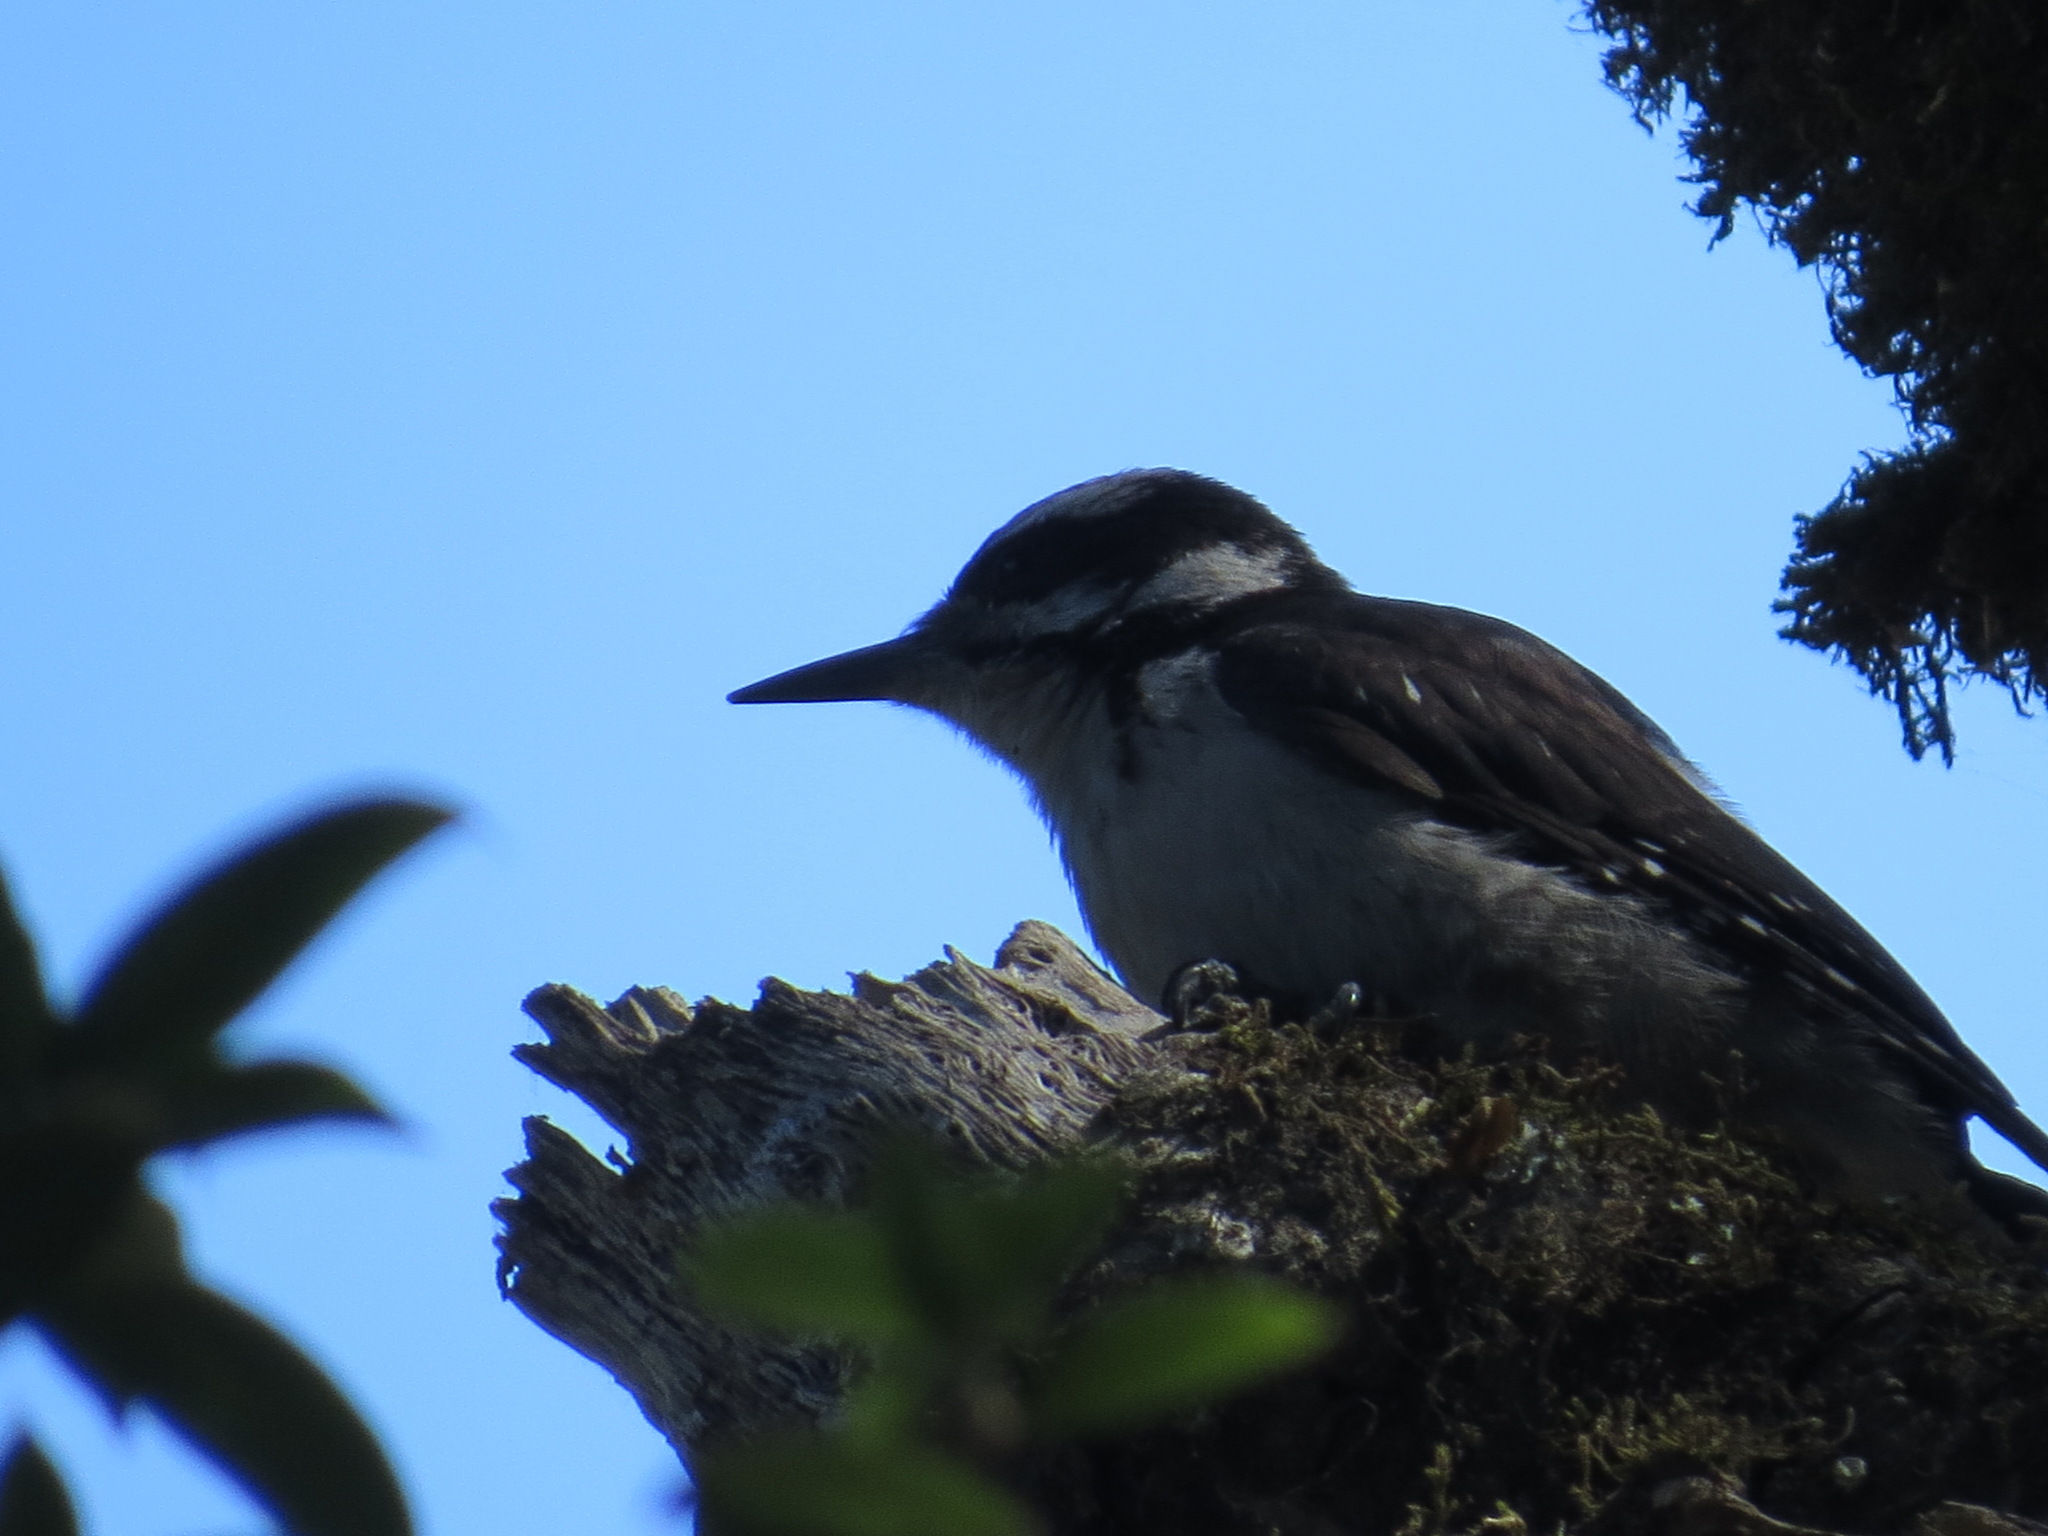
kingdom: Animalia
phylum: Chordata
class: Aves
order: Piciformes
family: Picidae
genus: Leuconotopicus
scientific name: Leuconotopicus villosus
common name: Hairy woodpecker
